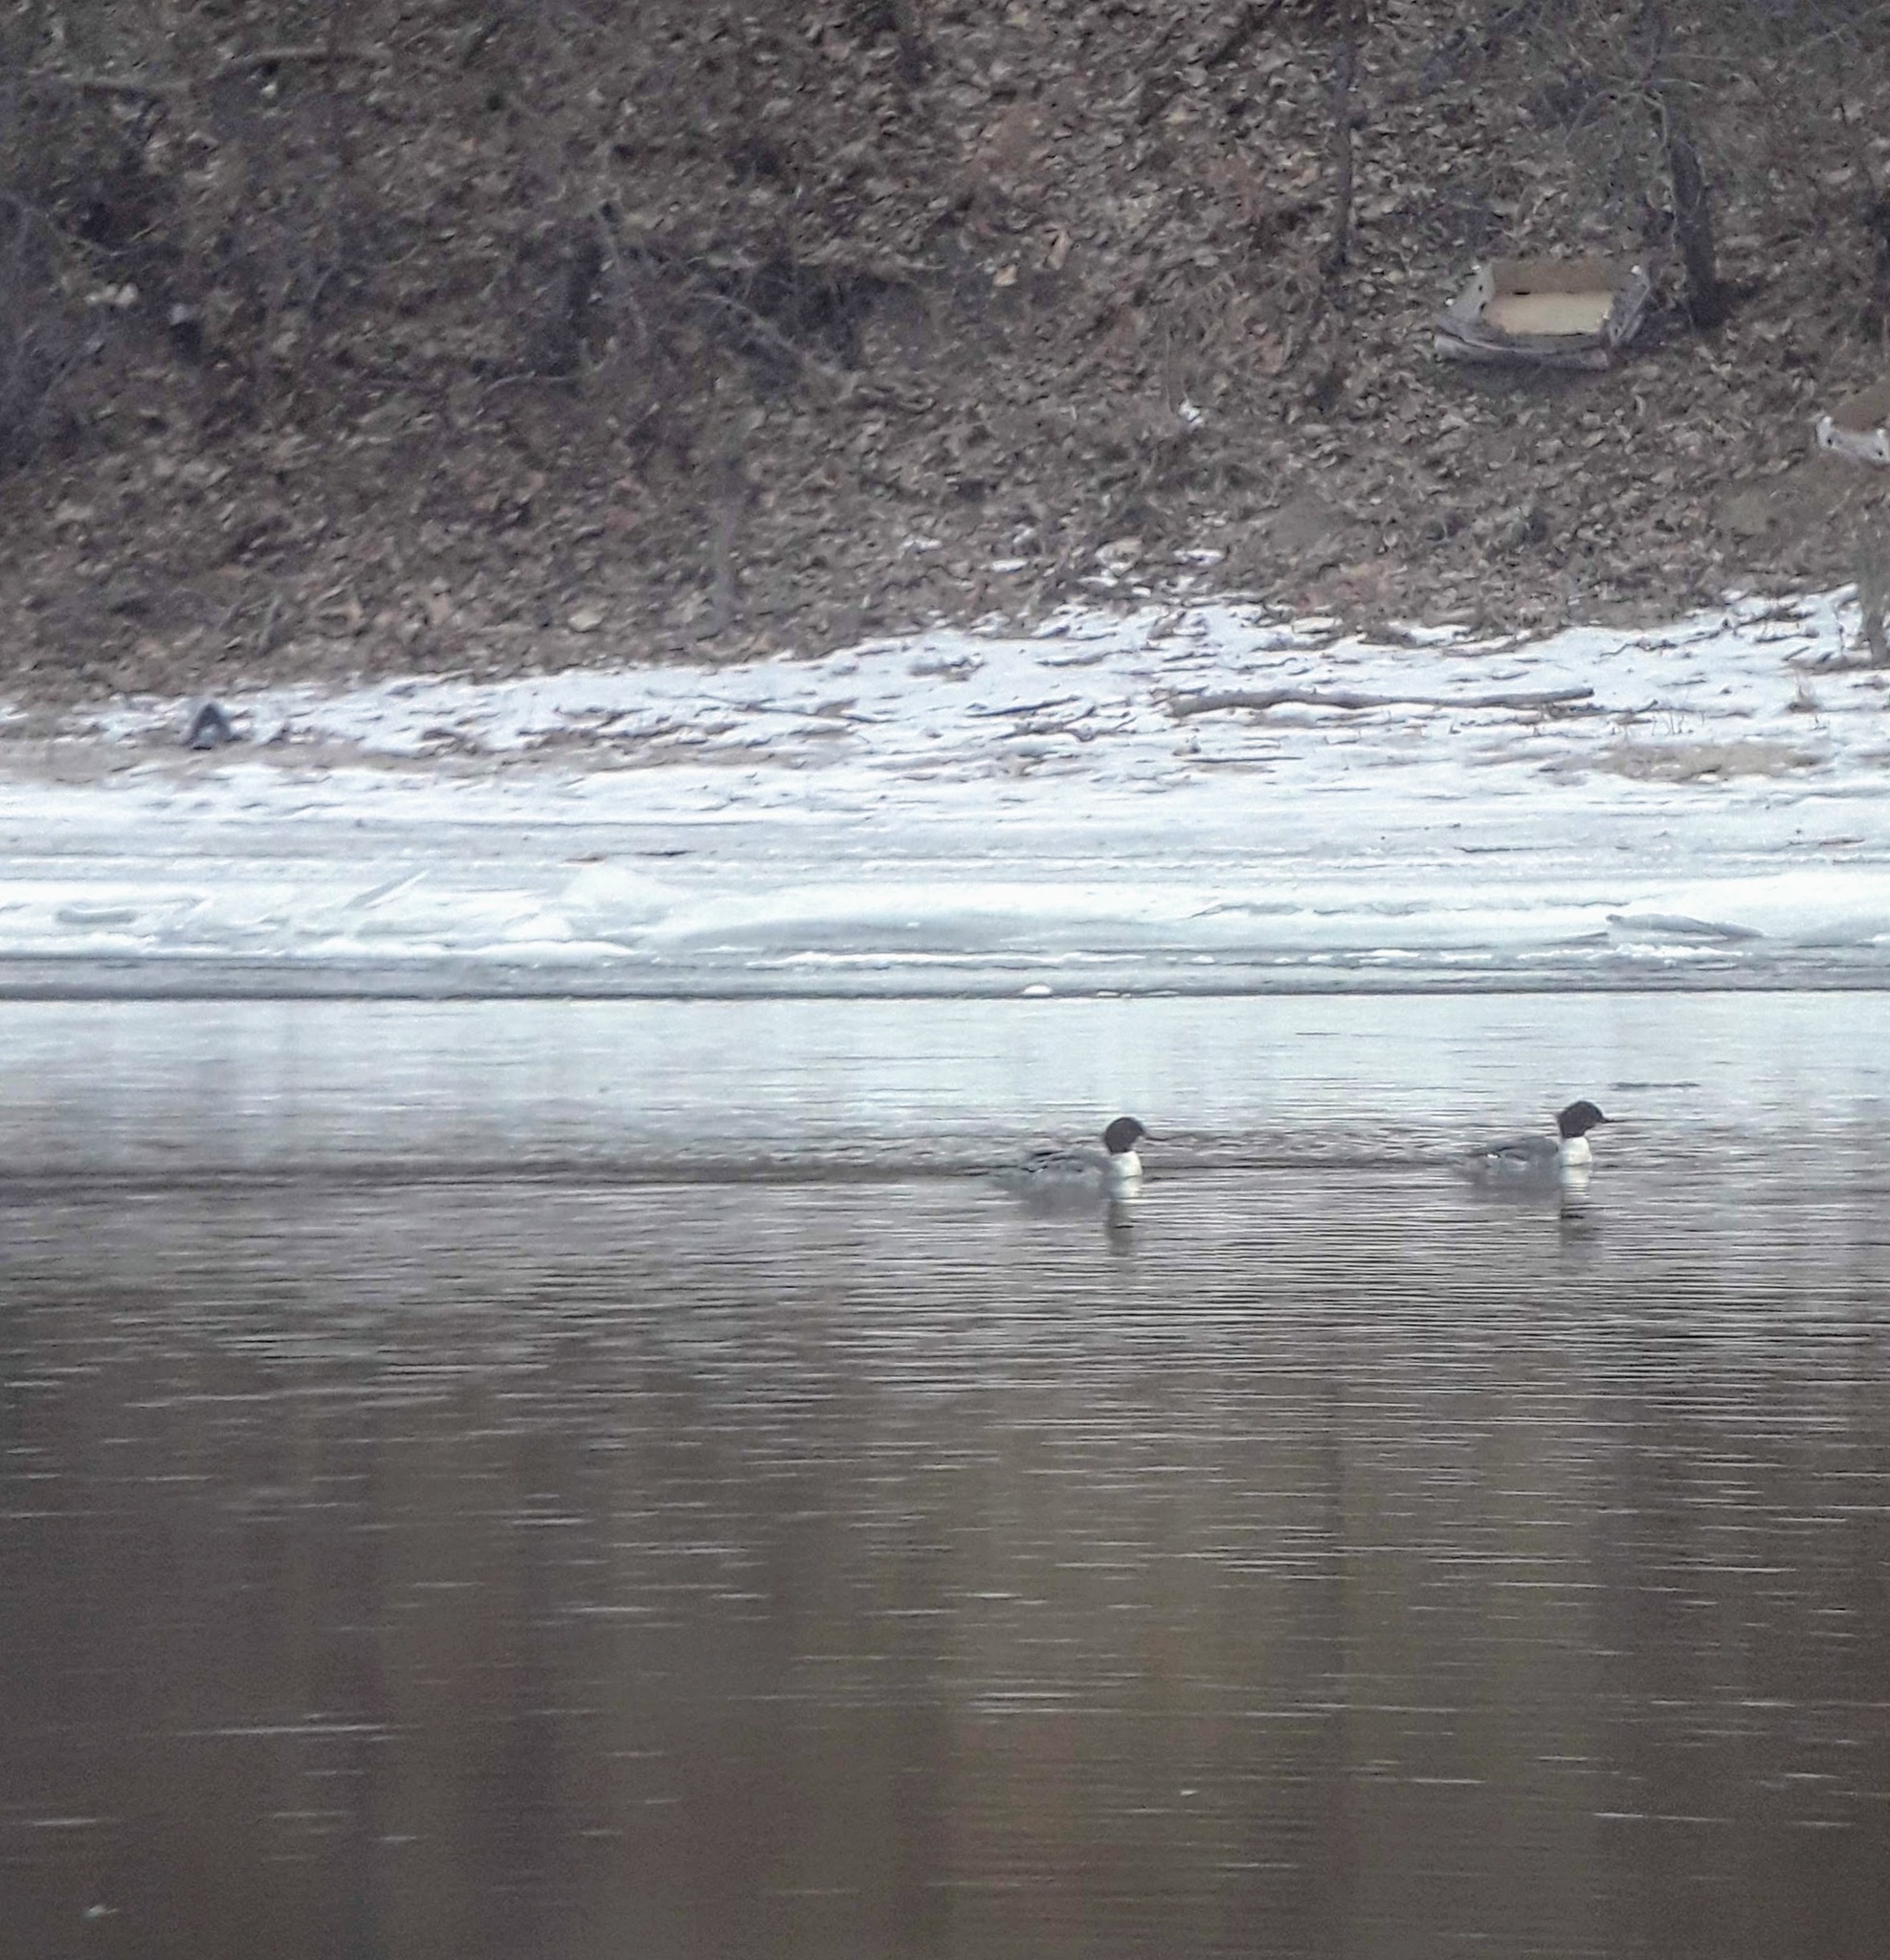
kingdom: Animalia
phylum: Chordata
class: Aves
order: Anseriformes
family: Anatidae
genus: Mergus
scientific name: Mergus merganser
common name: Common merganser
